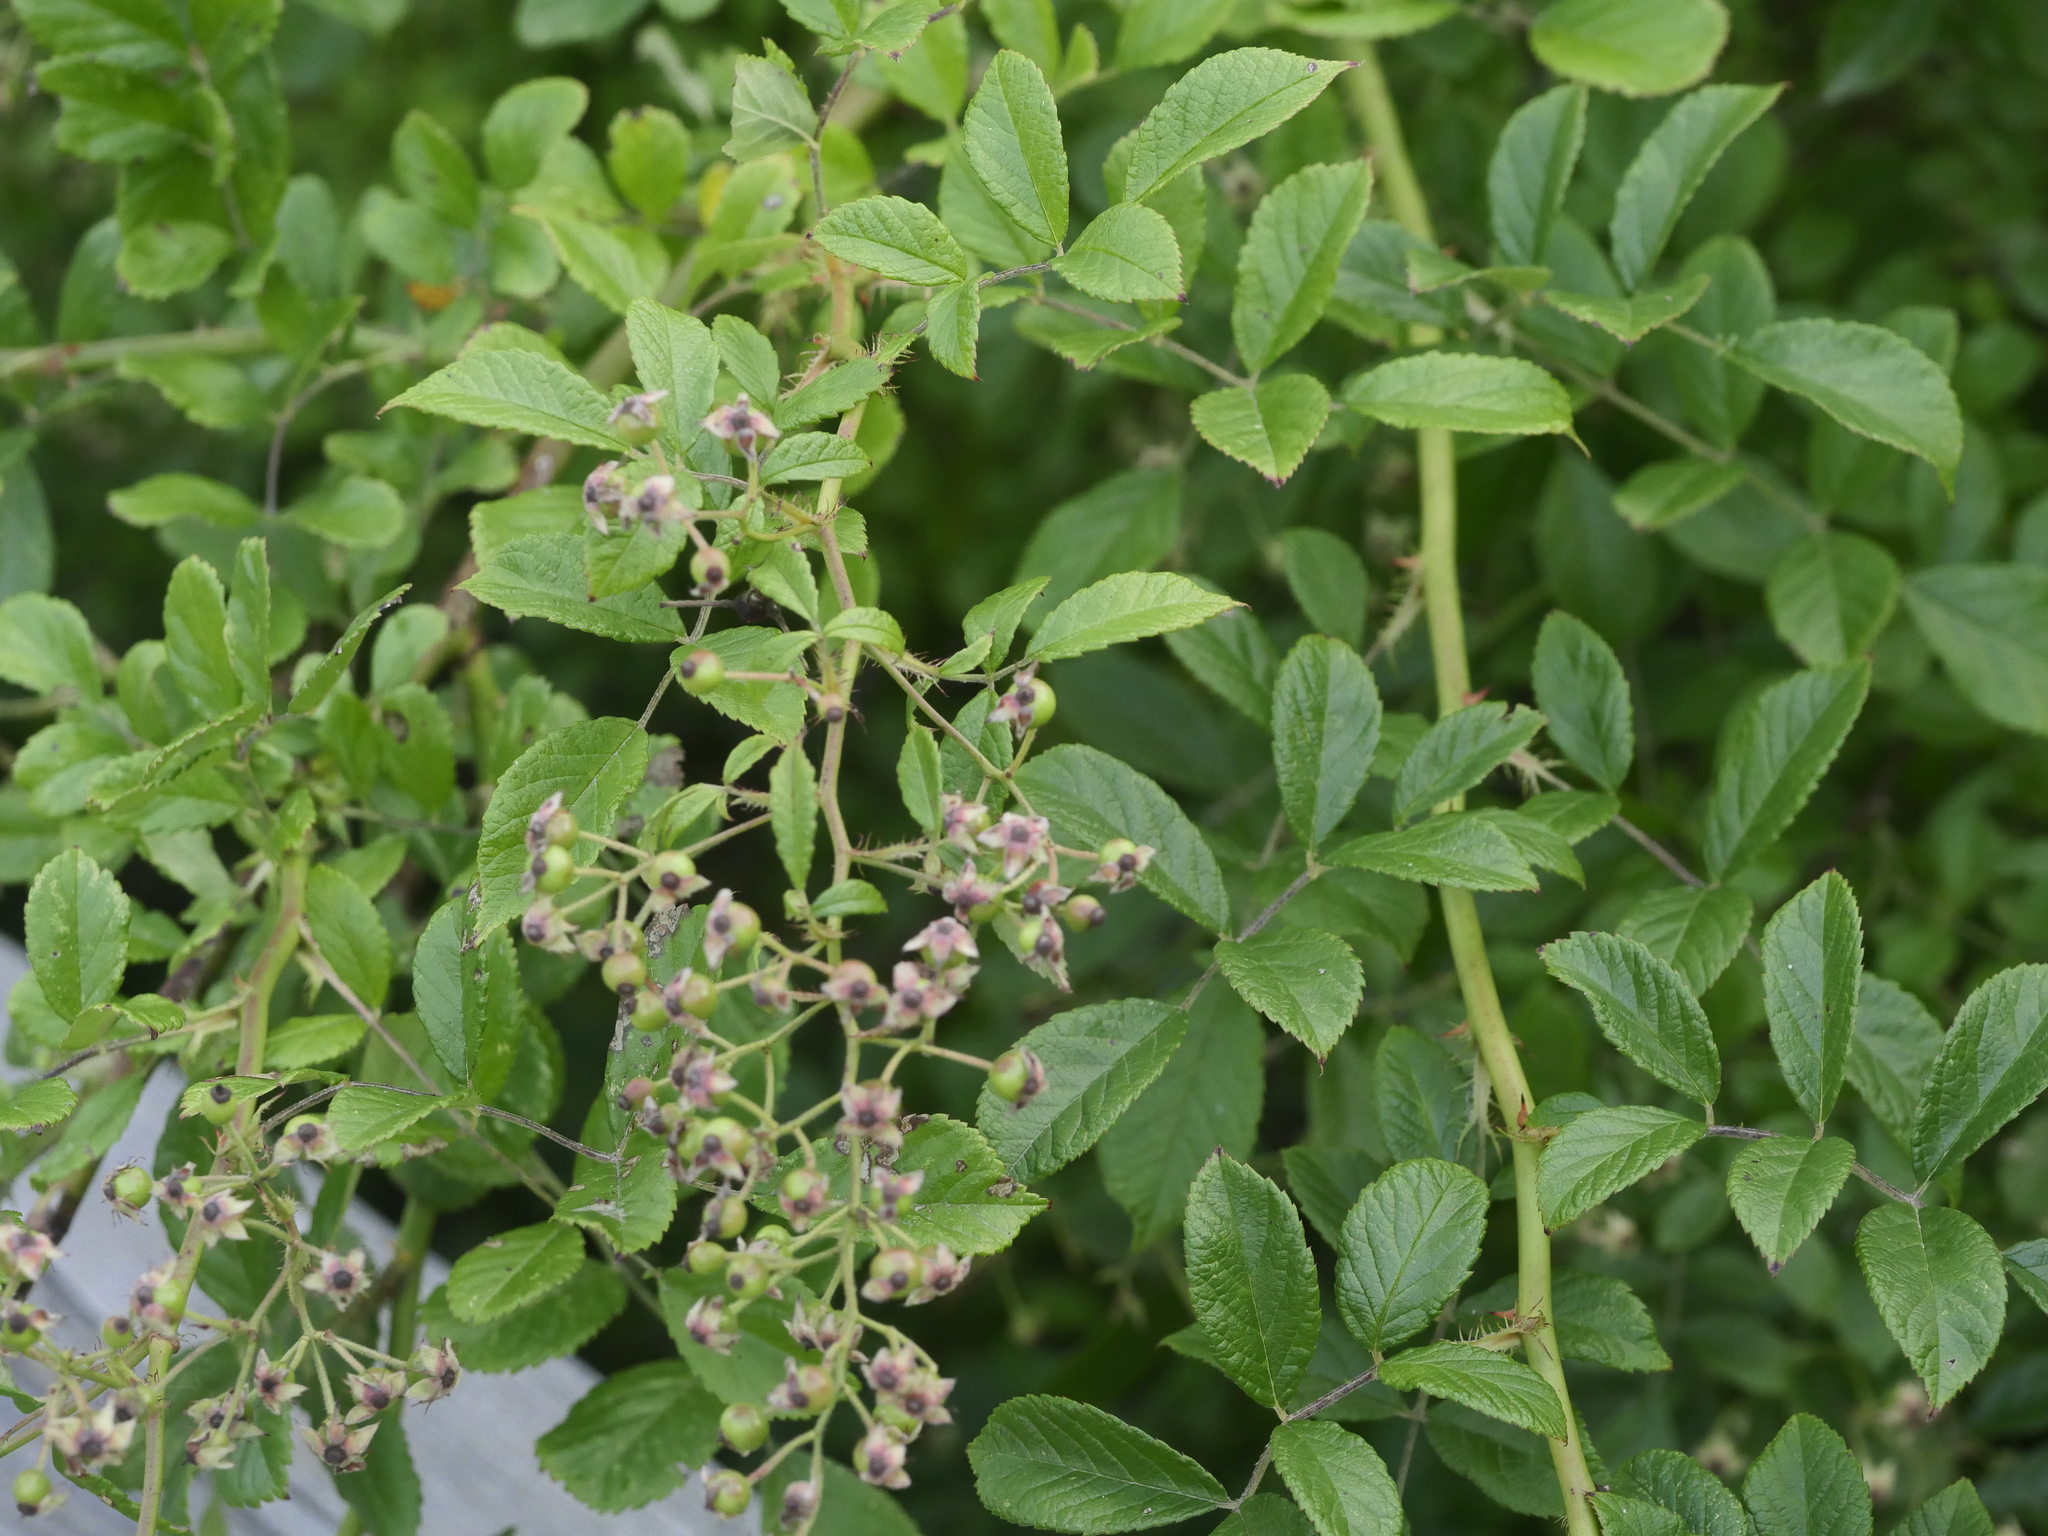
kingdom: Plantae
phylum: Tracheophyta
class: Magnoliopsida
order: Rosales
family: Rosaceae
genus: Rosa
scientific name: Rosa multiflora
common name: Multiflora rose
